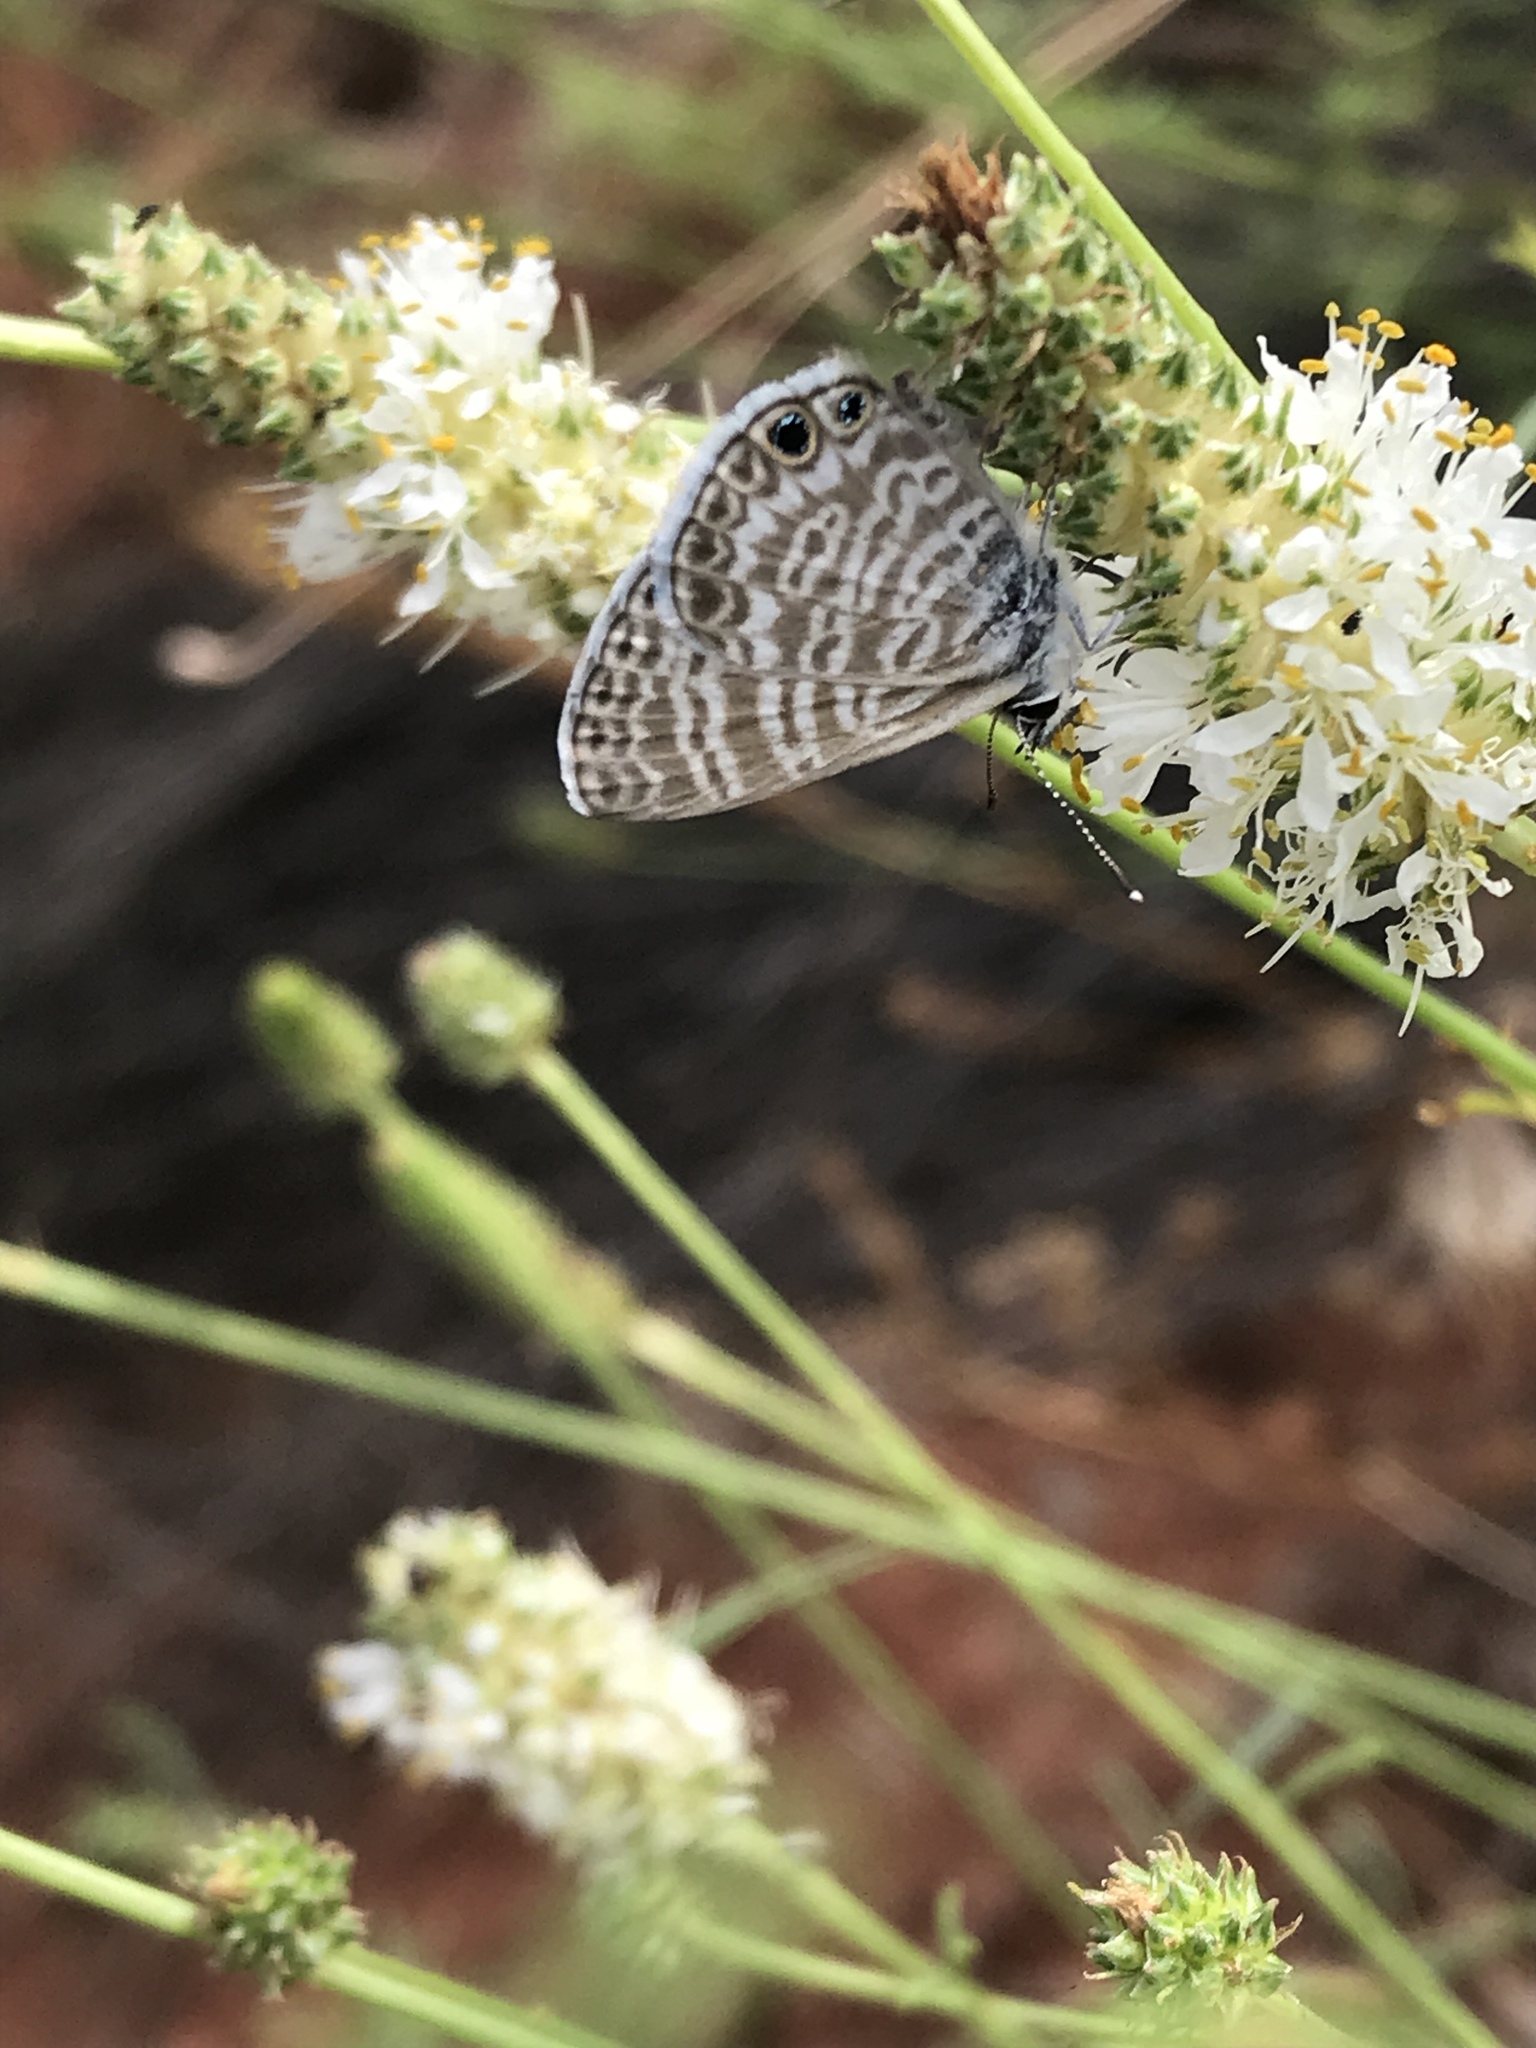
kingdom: Animalia
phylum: Arthropoda
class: Insecta
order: Lepidoptera
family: Lycaenidae
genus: Leptotes
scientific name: Leptotes marina
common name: Marine blue
